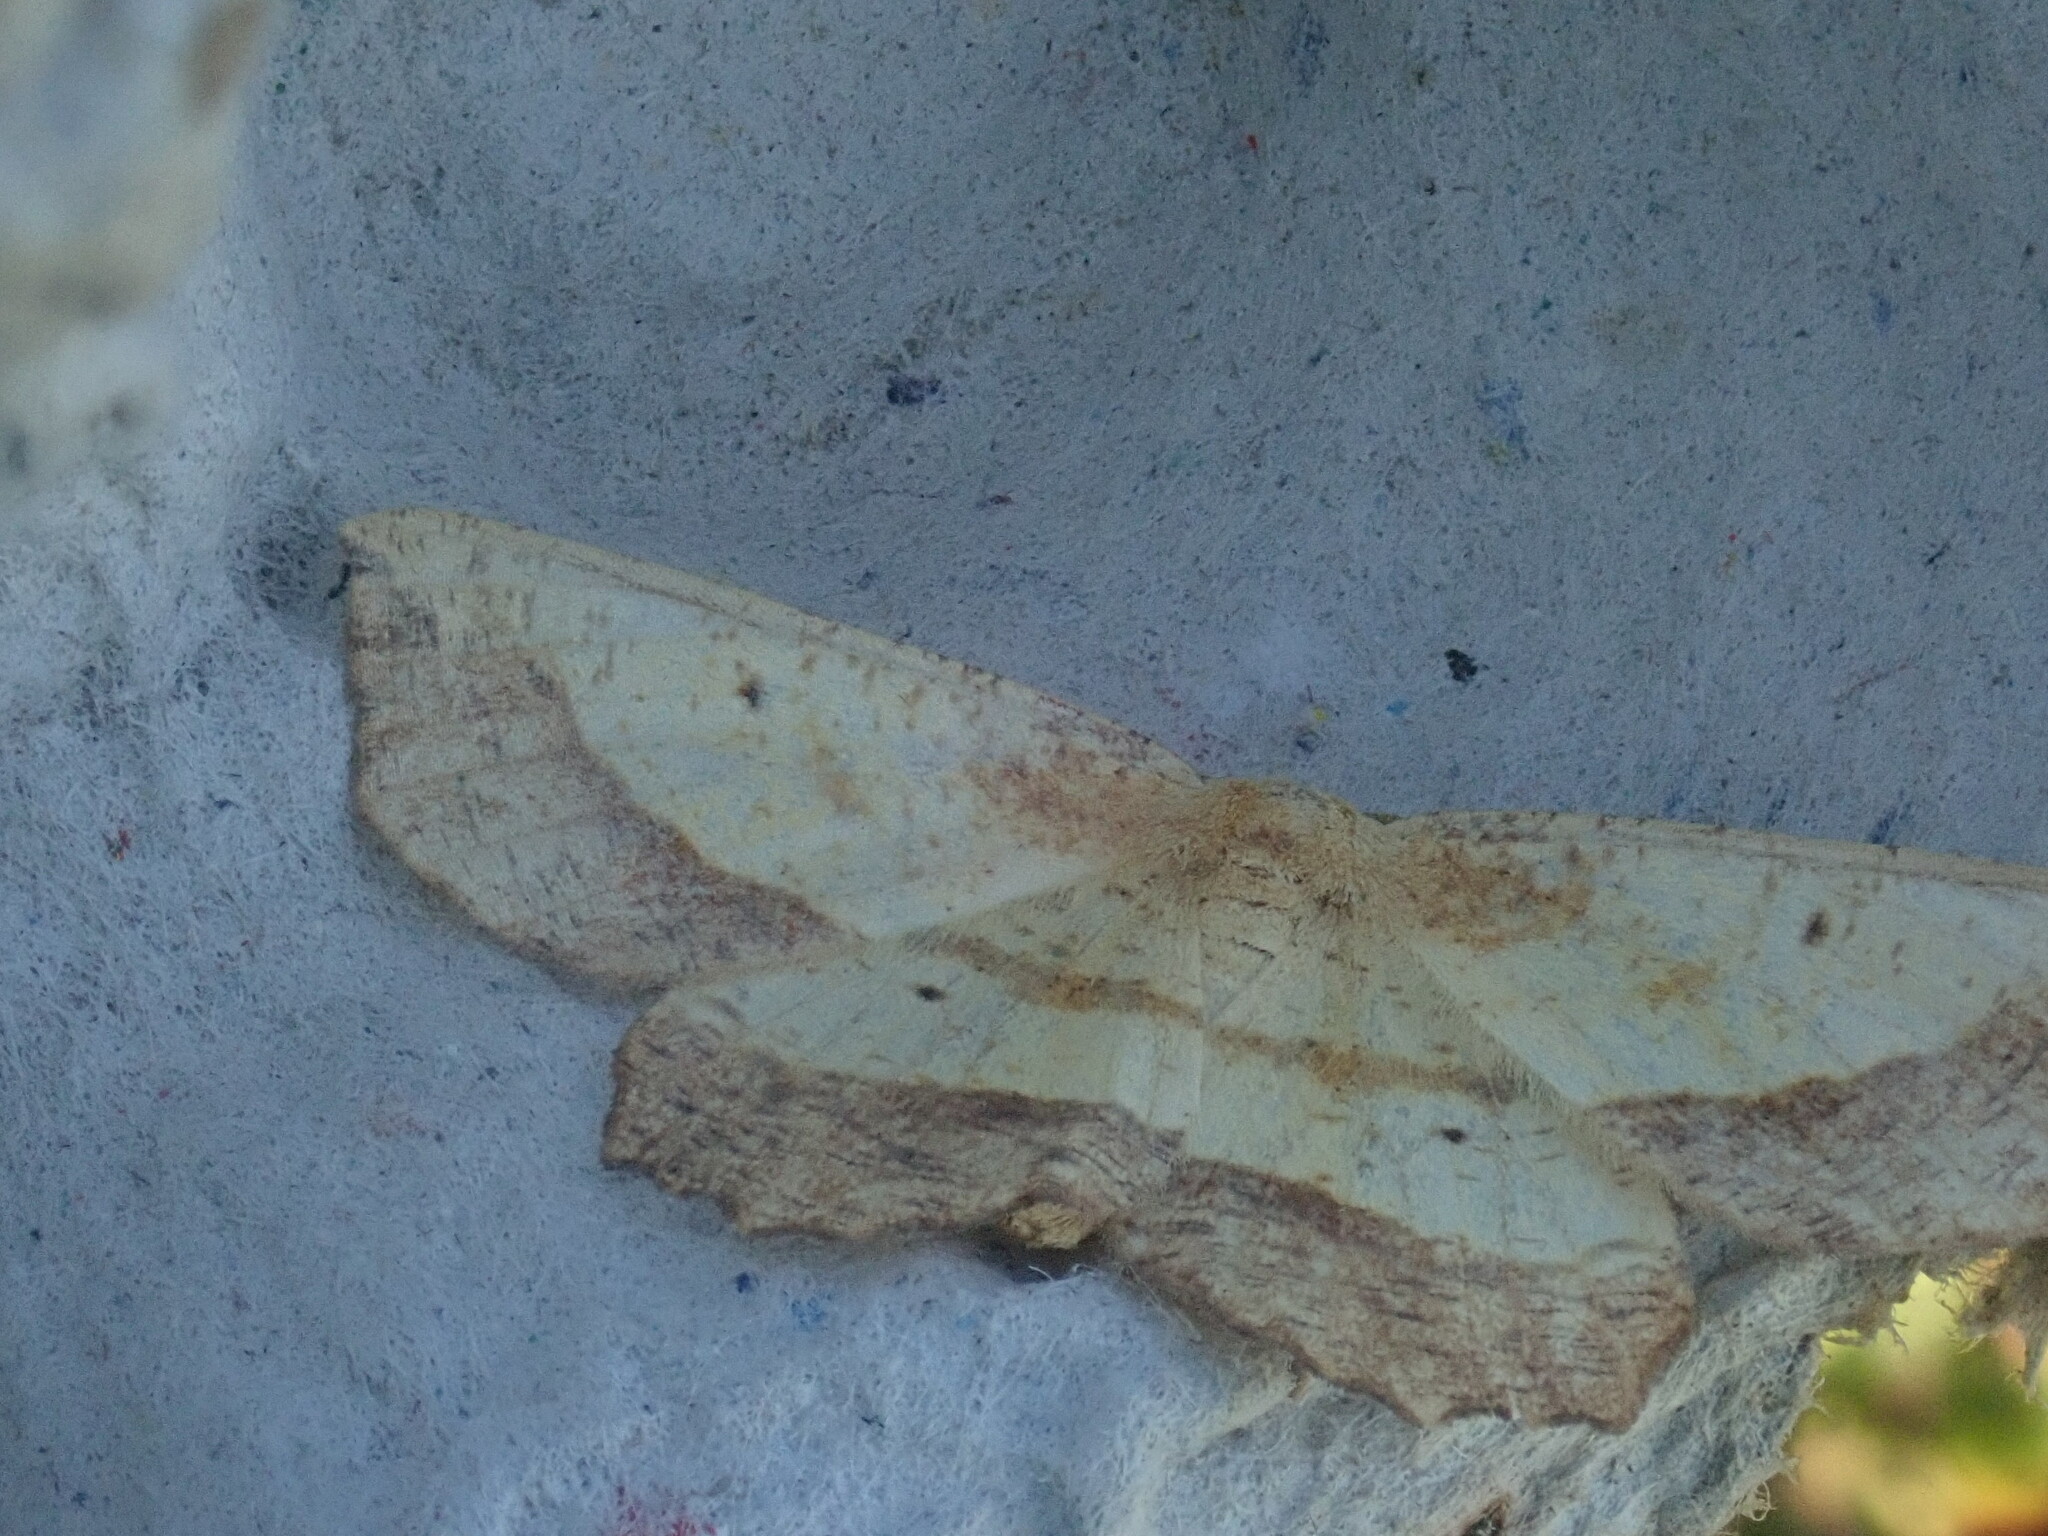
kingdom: Animalia
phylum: Arthropoda
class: Insecta
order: Lepidoptera
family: Geometridae
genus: Euchlaena
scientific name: Euchlaena serrata
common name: Saw wing
